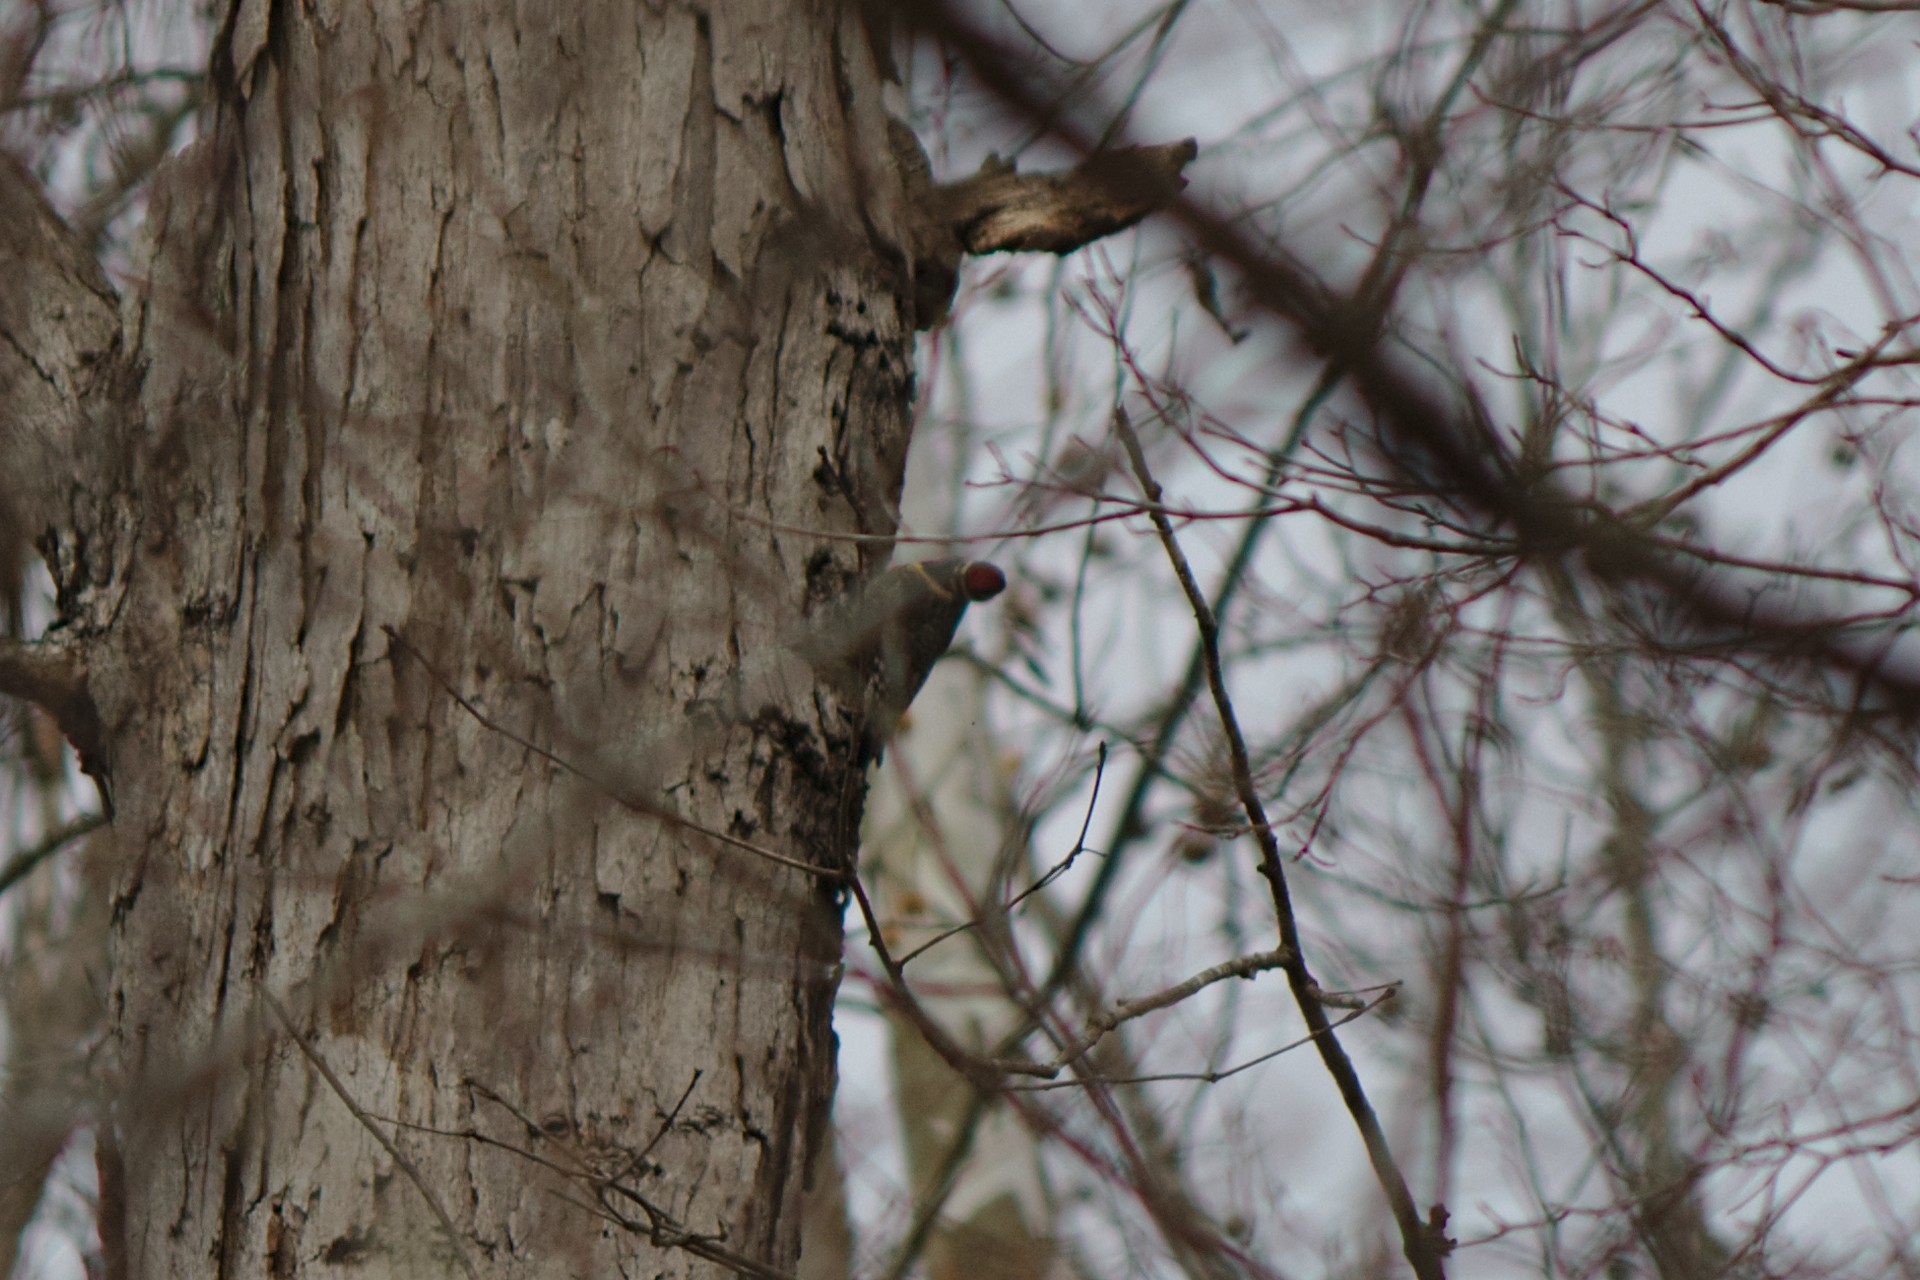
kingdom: Animalia
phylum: Chordata
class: Aves
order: Piciformes
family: Picidae
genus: Sphyrapicus
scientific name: Sphyrapicus varius
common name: Yellow-bellied sapsucker
